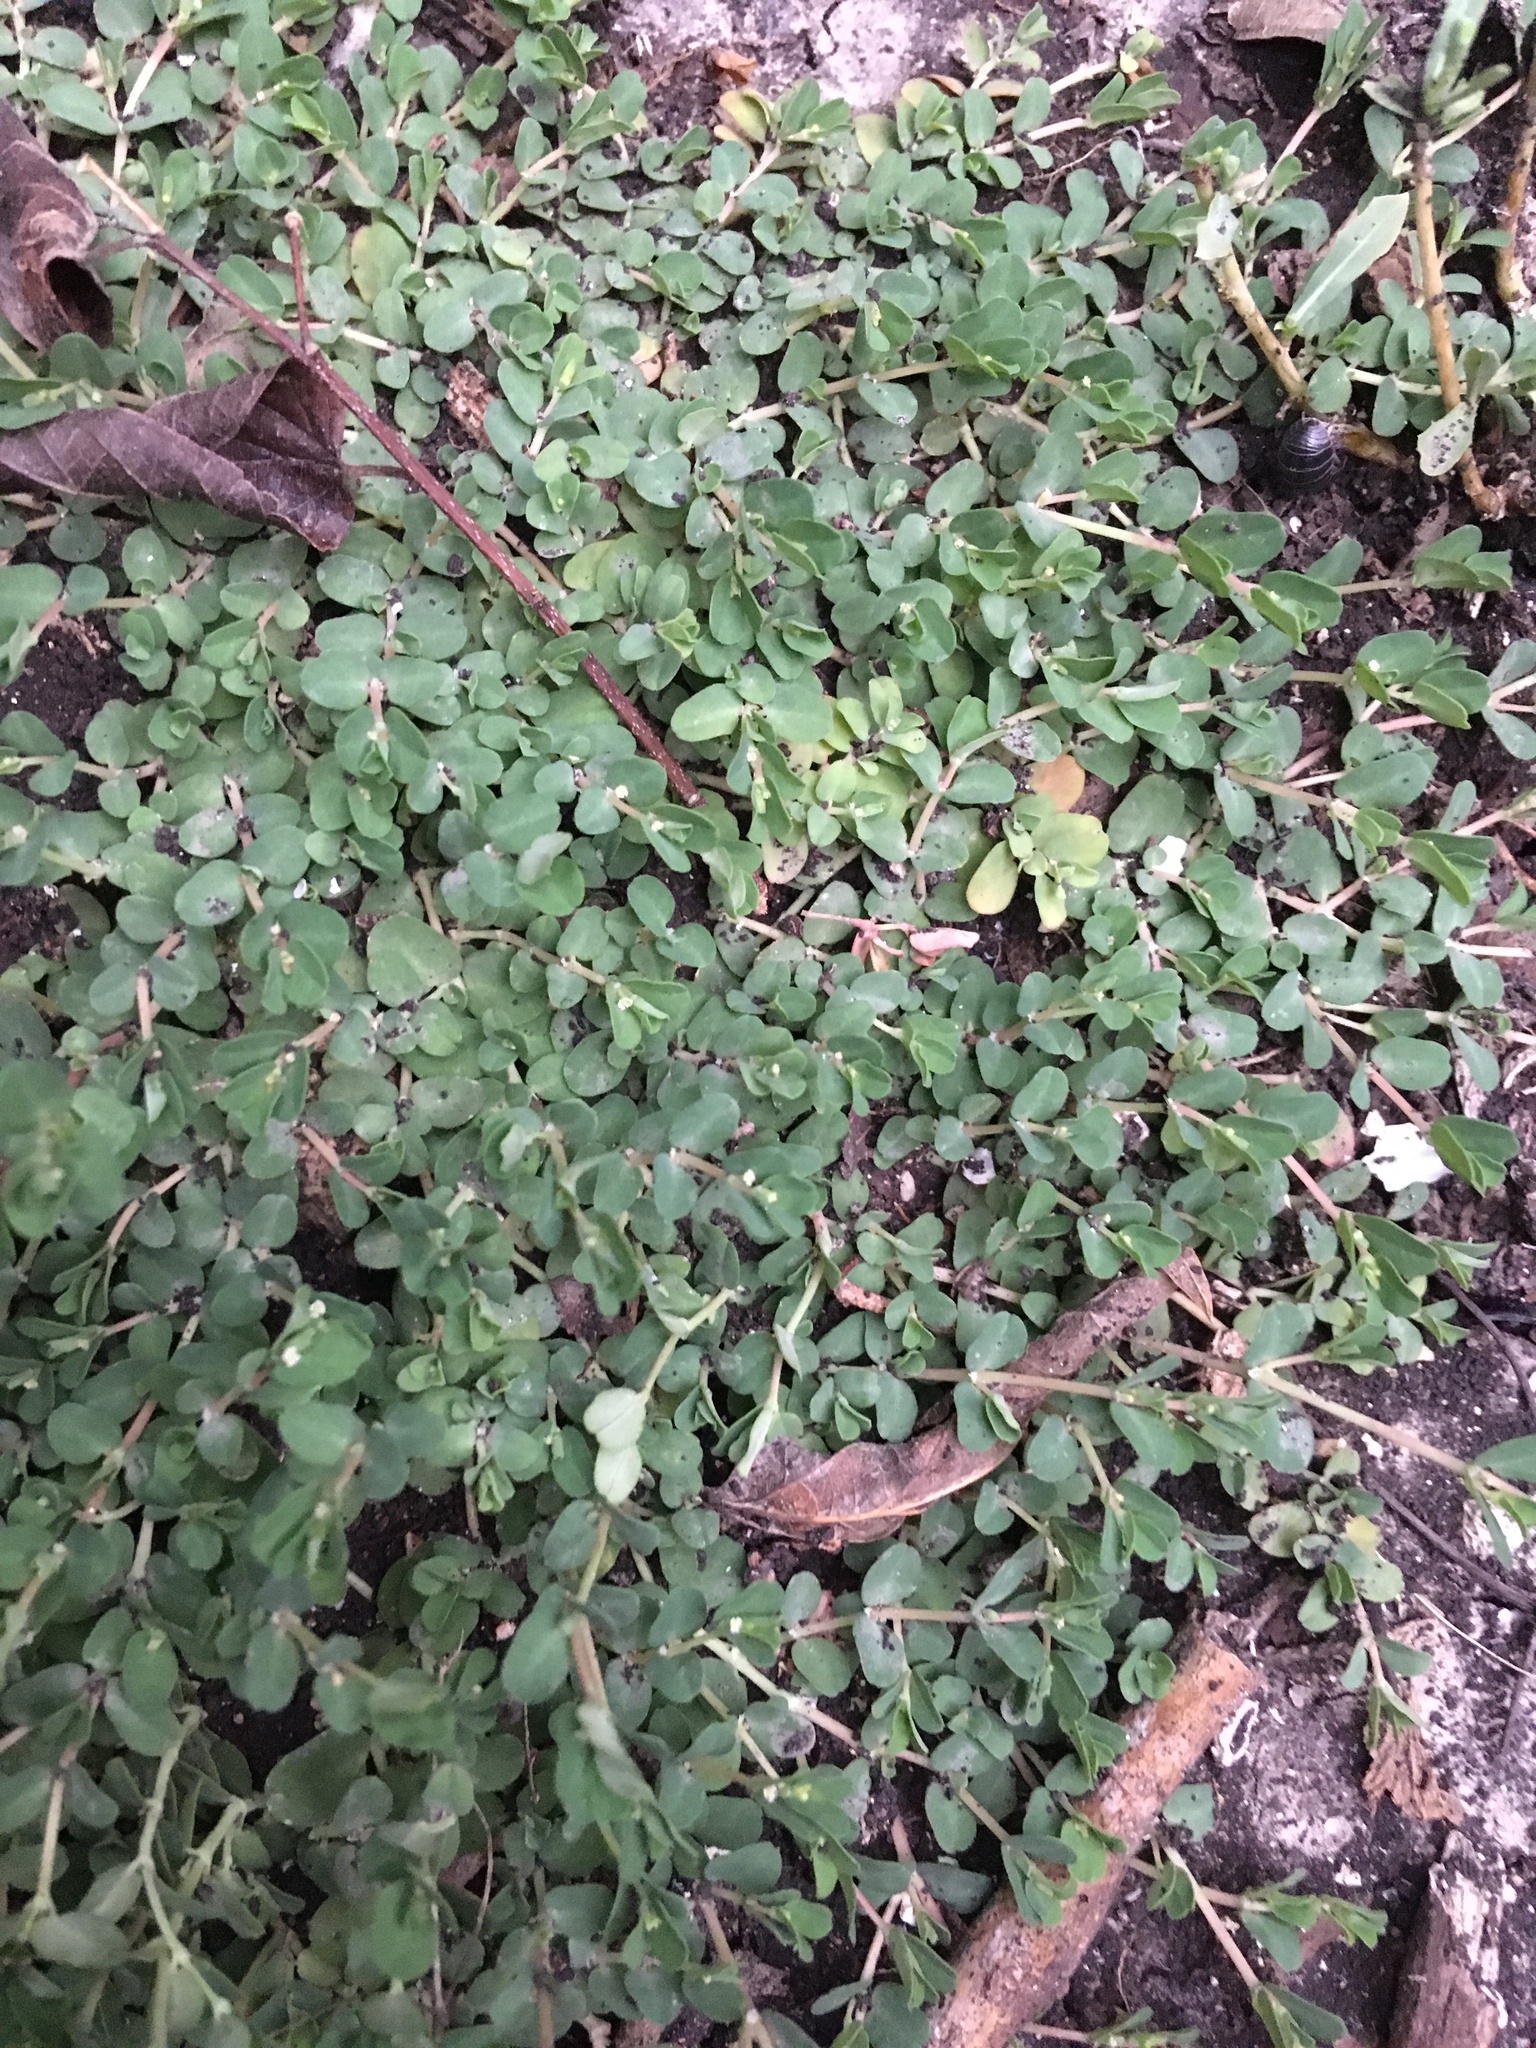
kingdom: Plantae
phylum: Tracheophyta
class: Magnoliopsida
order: Malpighiales
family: Euphorbiaceae
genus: Euphorbia
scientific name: Euphorbia serpens
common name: Matted sandmat
